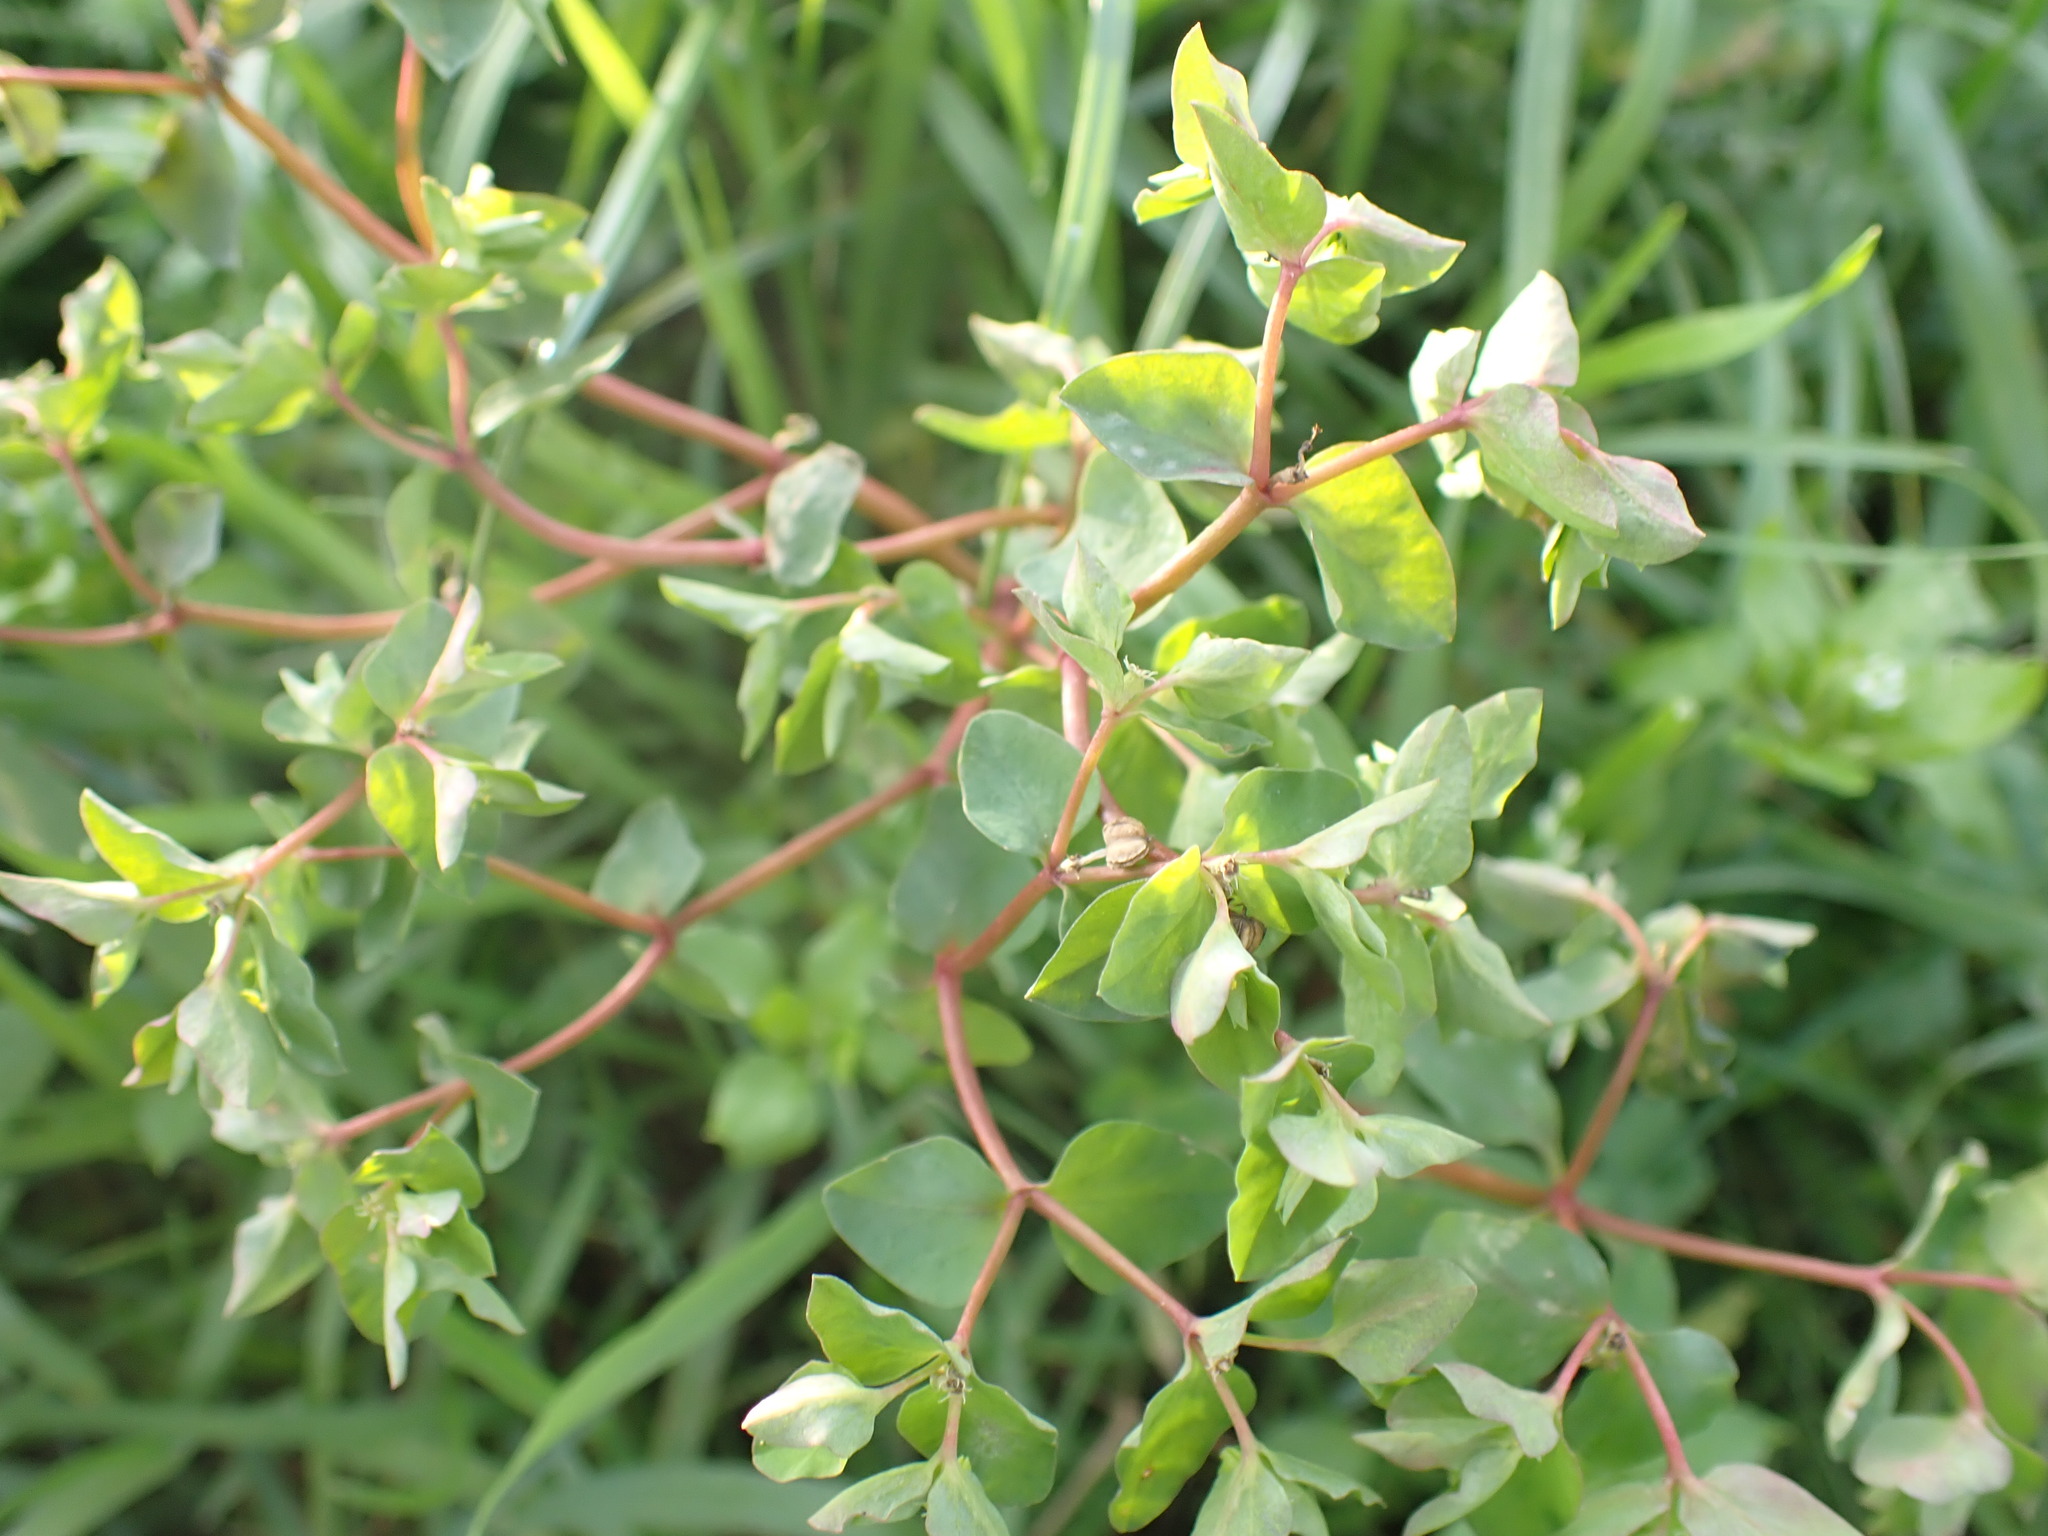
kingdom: Plantae
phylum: Tracheophyta
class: Magnoliopsida
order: Malpighiales
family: Euphorbiaceae
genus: Euphorbia
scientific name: Euphorbia peplus
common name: Petty spurge
